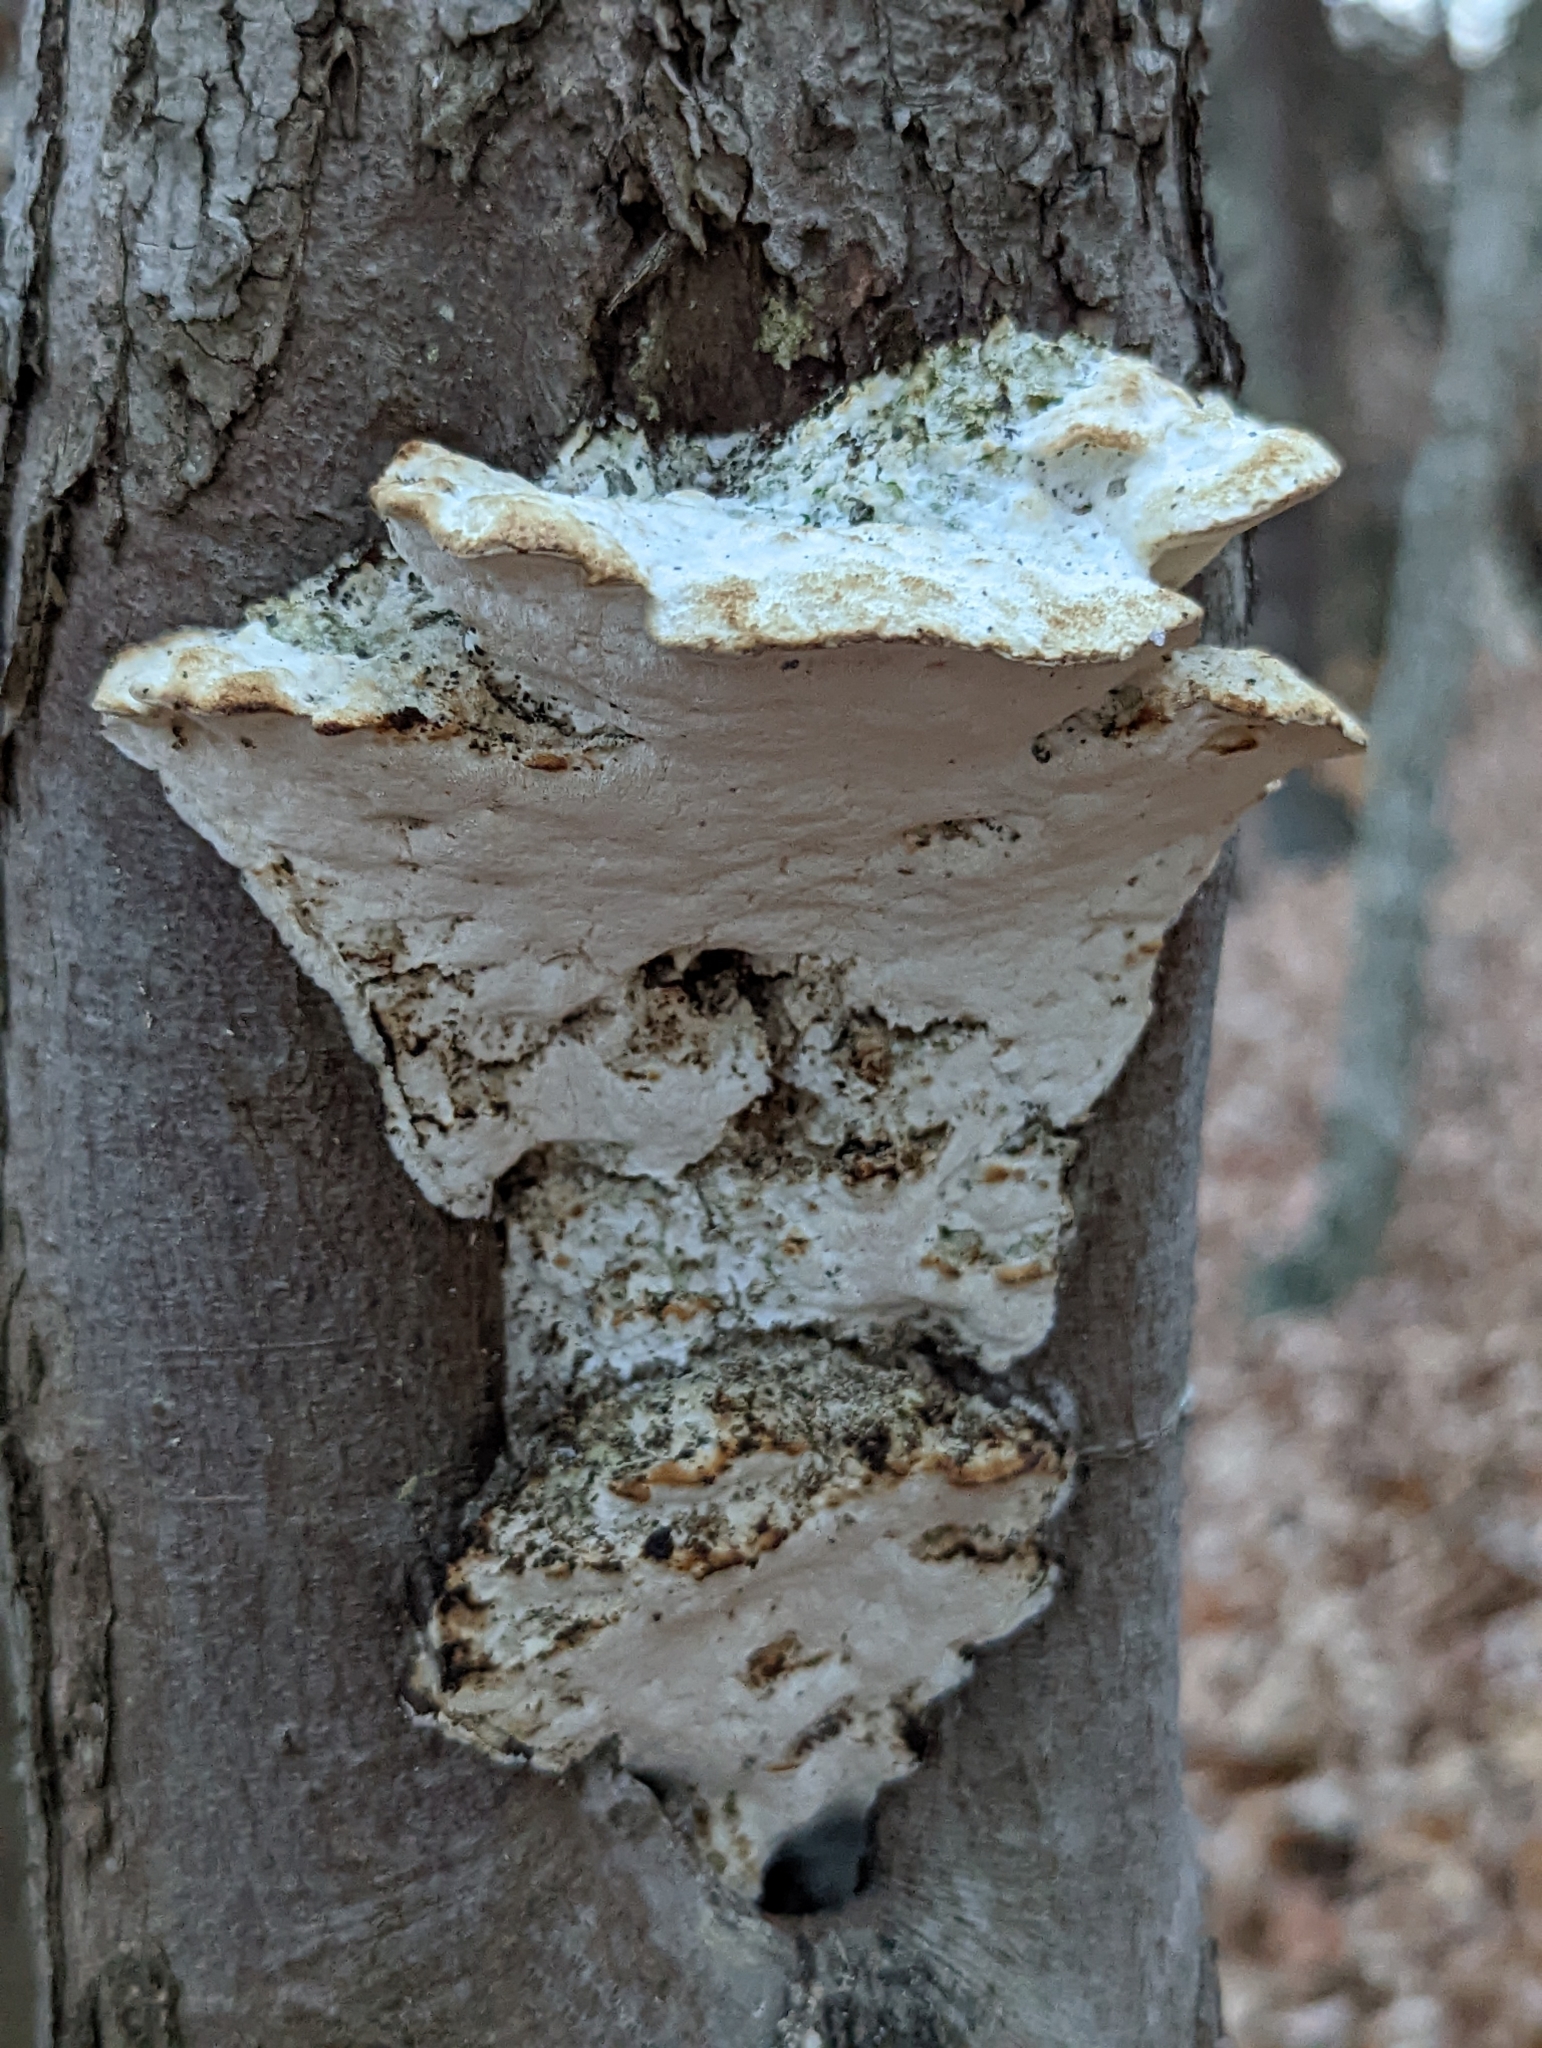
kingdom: Fungi
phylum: Basidiomycota
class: Agaricomycetes
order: Hymenochaetales
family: Oxyporaceae
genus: Oxyporus
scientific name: Oxyporus populinus
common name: Poplar bracket
